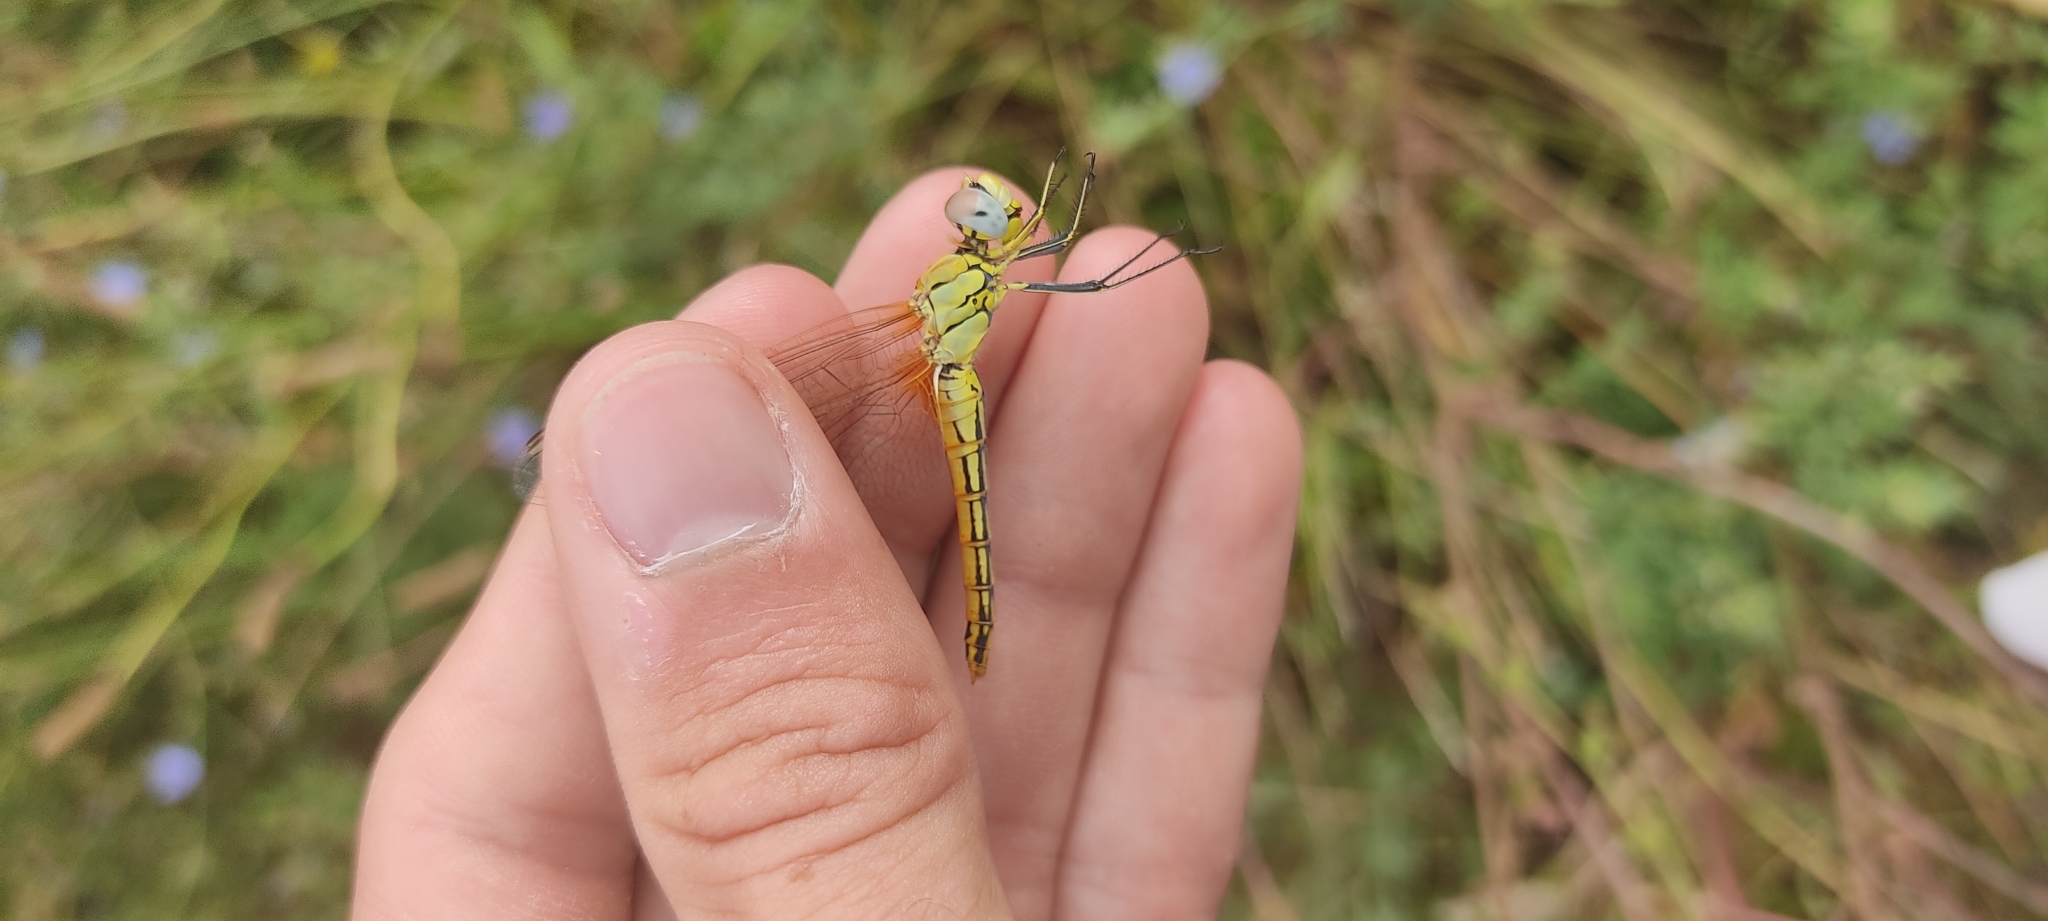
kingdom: Animalia
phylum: Arthropoda
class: Insecta
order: Odonata
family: Libellulidae
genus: Sympetrum
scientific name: Sympetrum fonscolombii
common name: Red-veined darter
